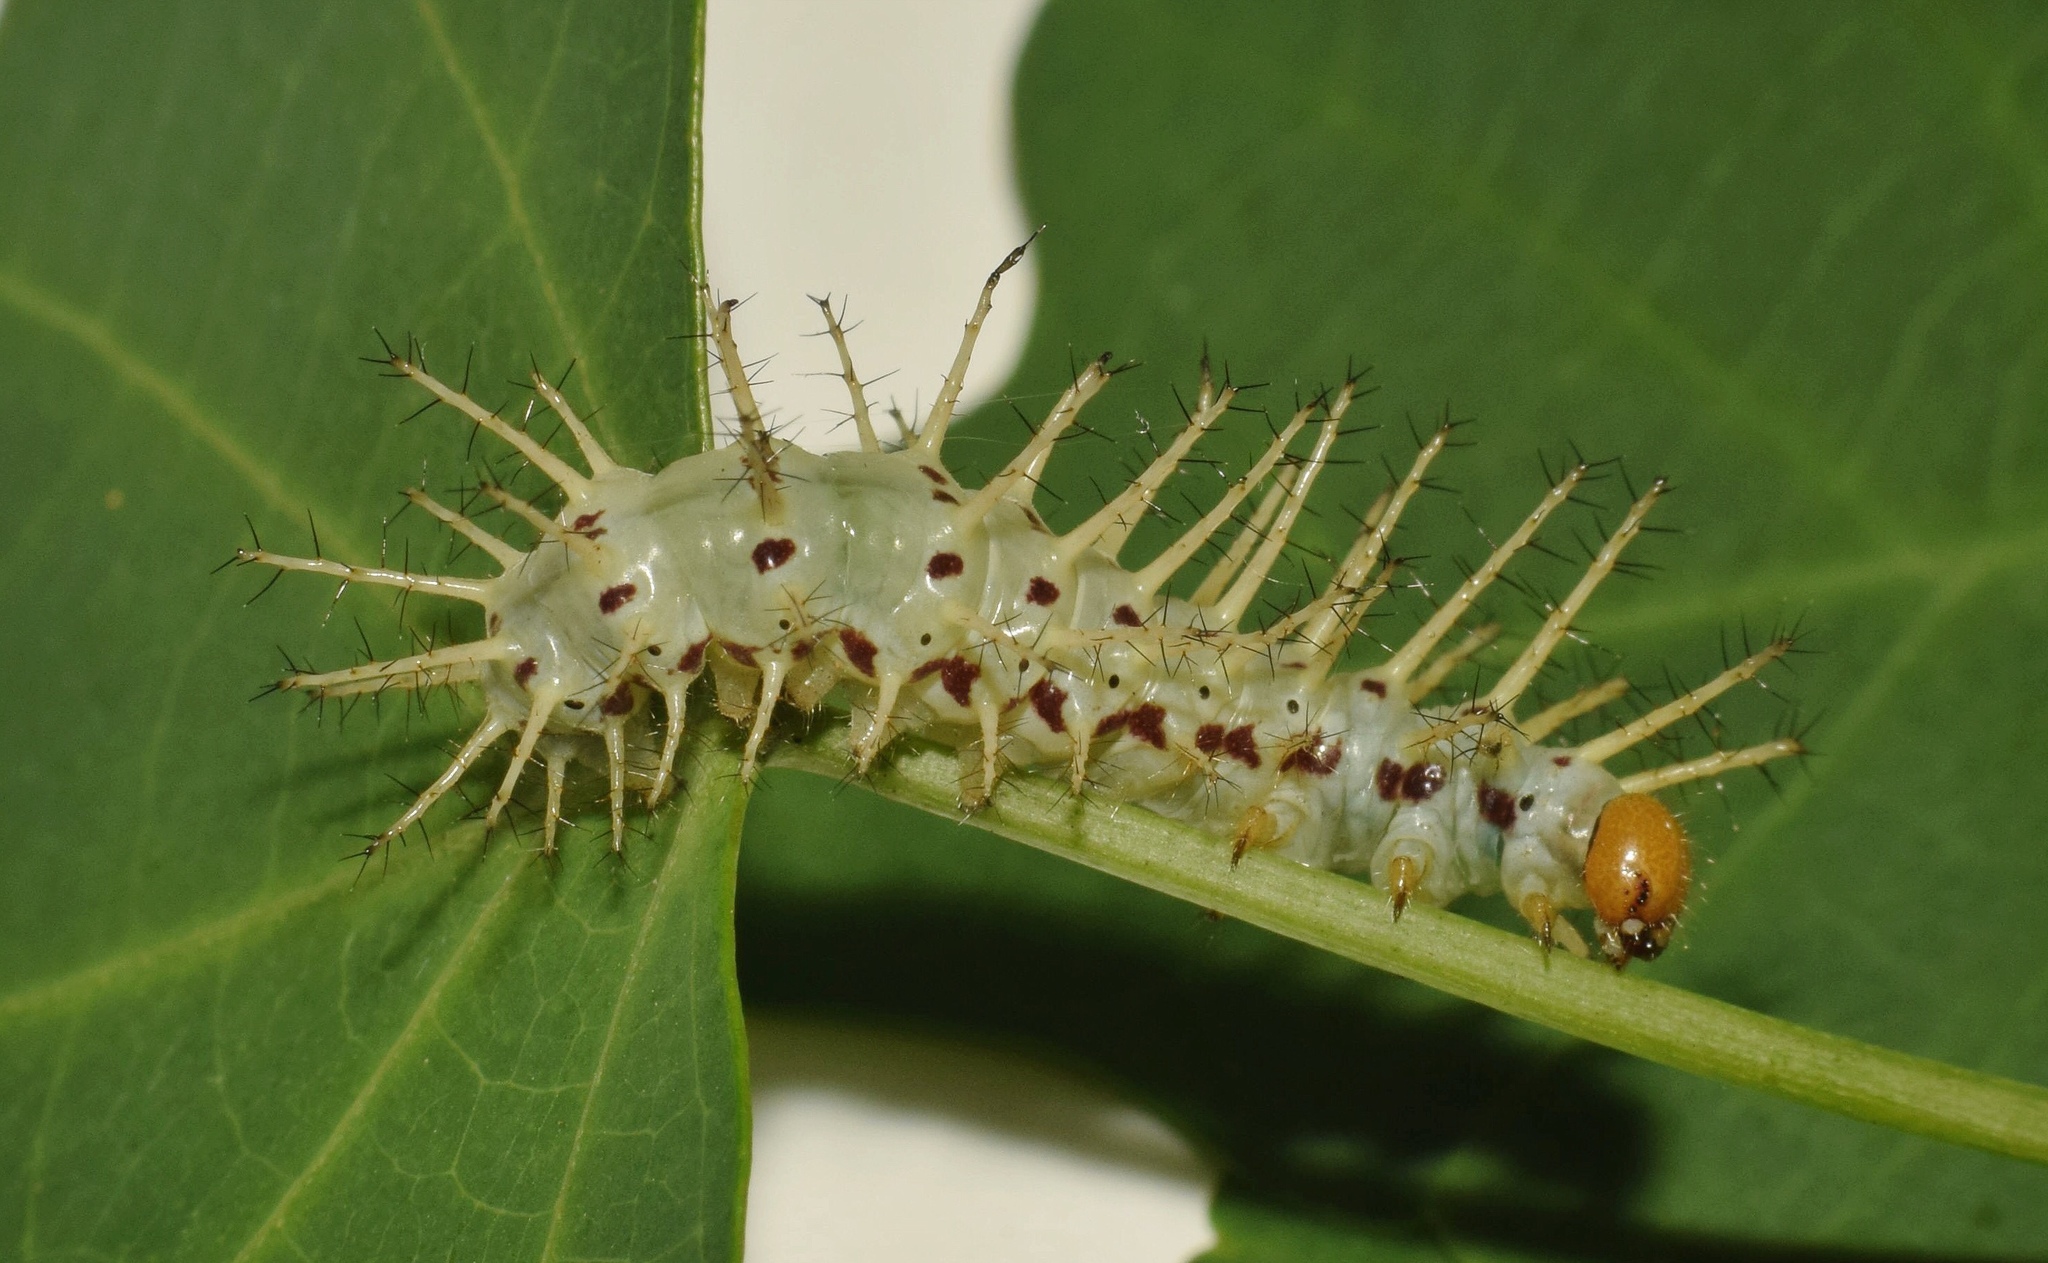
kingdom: Animalia
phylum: Arthropoda
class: Insecta
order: Lepidoptera
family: Nymphalidae
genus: Acraea
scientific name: Acraea Bematistes aganice
